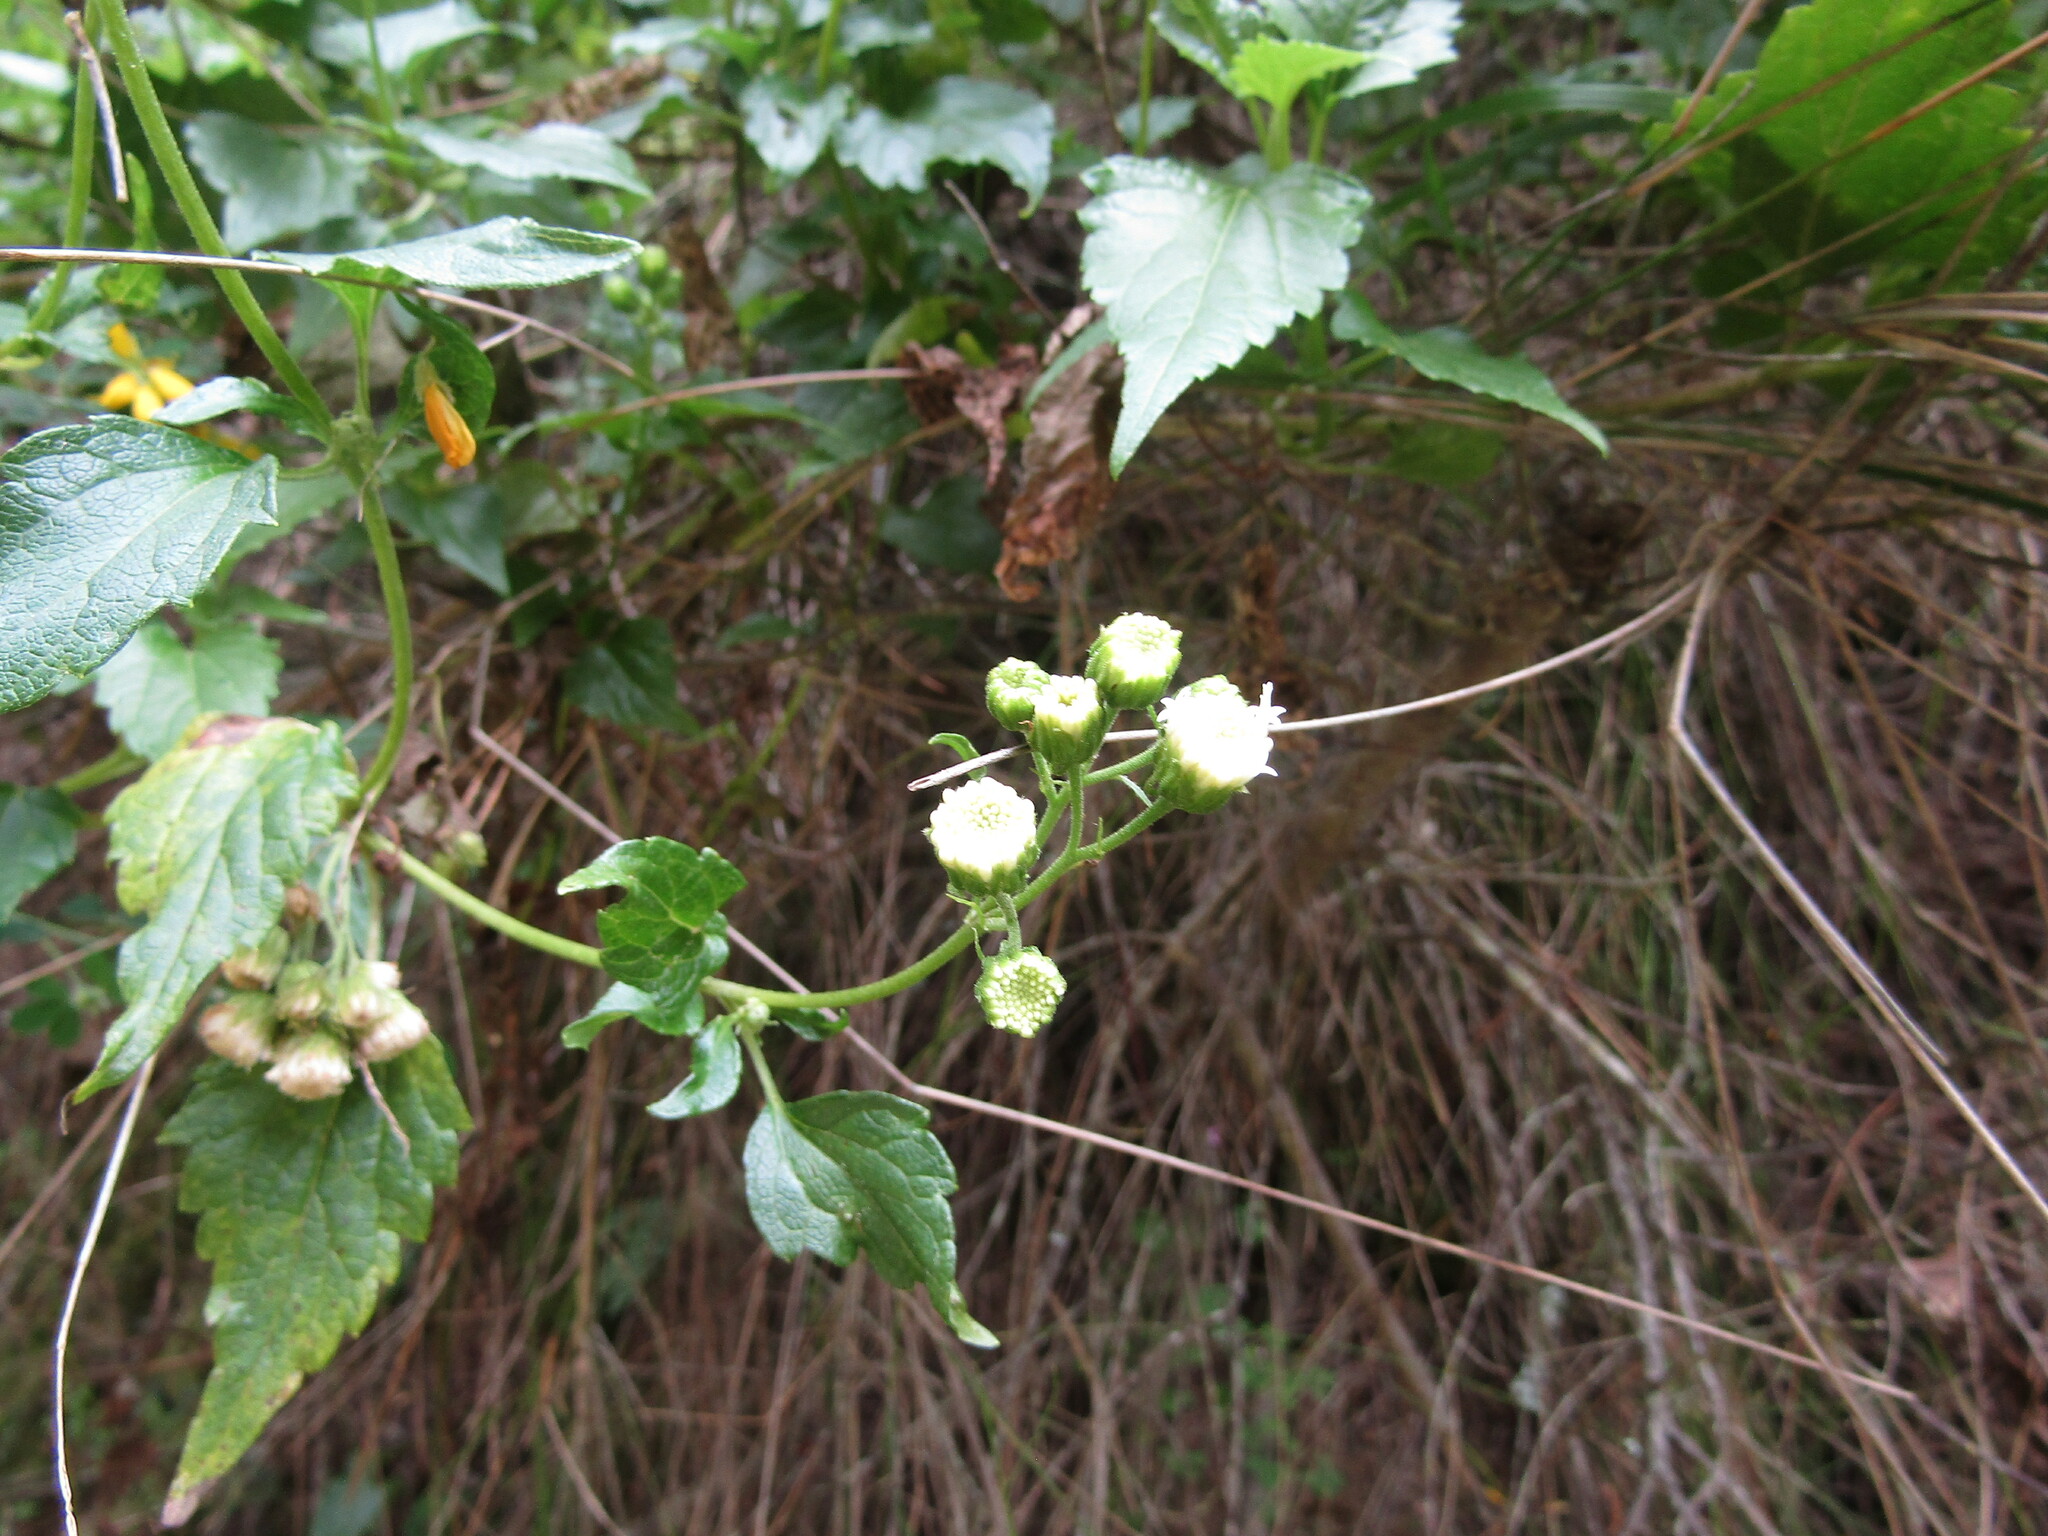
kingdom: Plantae
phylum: Tracheophyta
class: Magnoliopsida
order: Asterales
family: Asteraceae
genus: Ageratina
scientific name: Ageratina glechonophylla
